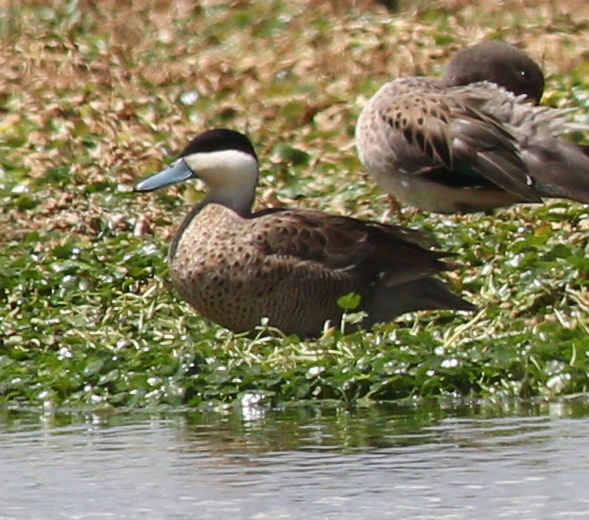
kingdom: Animalia
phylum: Chordata
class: Aves
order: Anseriformes
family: Anatidae
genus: Spatula
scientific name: Spatula puna
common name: Puna teal
